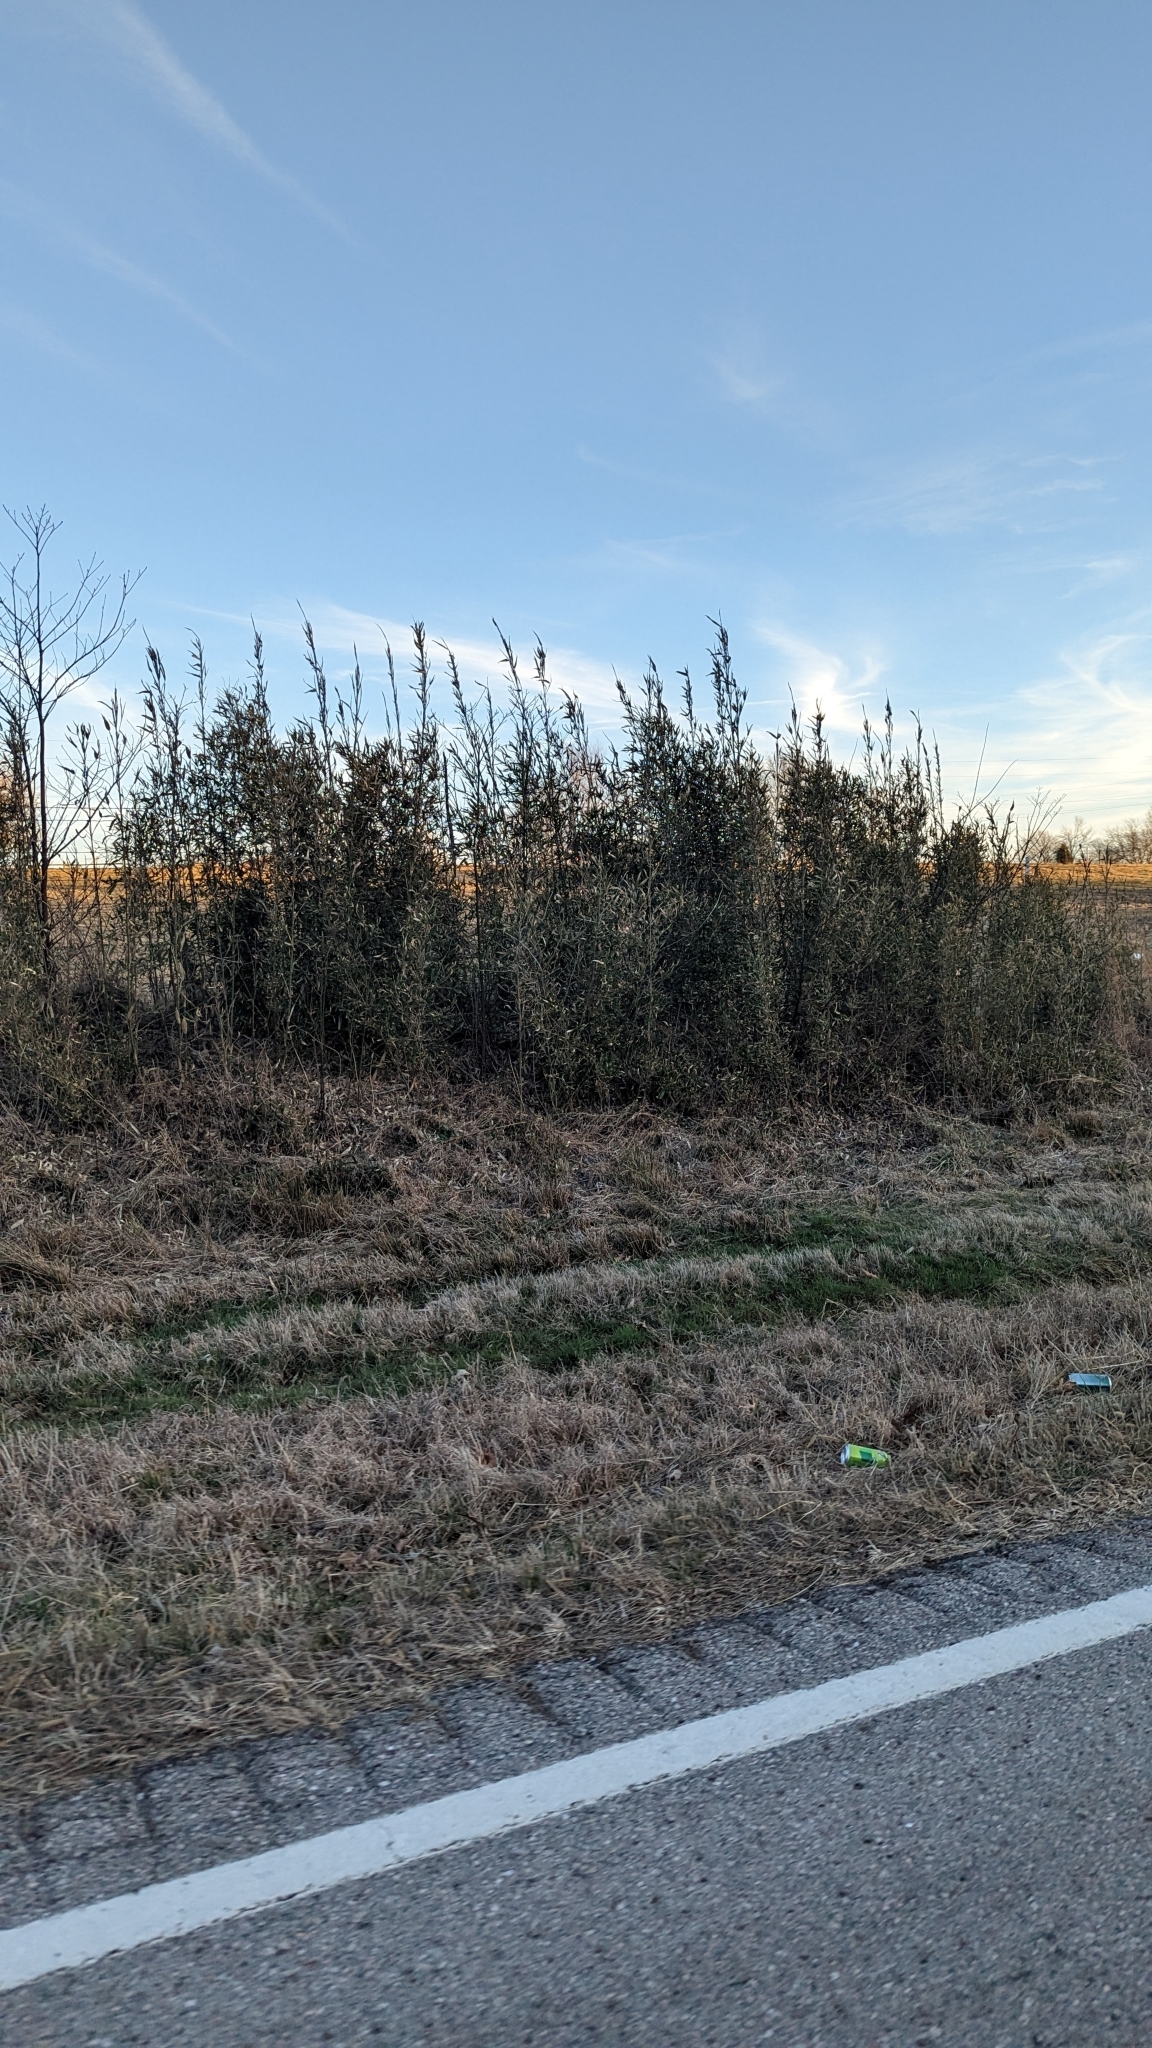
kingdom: Plantae
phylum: Tracheophyta
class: Liliopsida
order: Poales
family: Poaceae
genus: Arundinaria
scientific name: Arundinaria gigantea
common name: Giant cane
